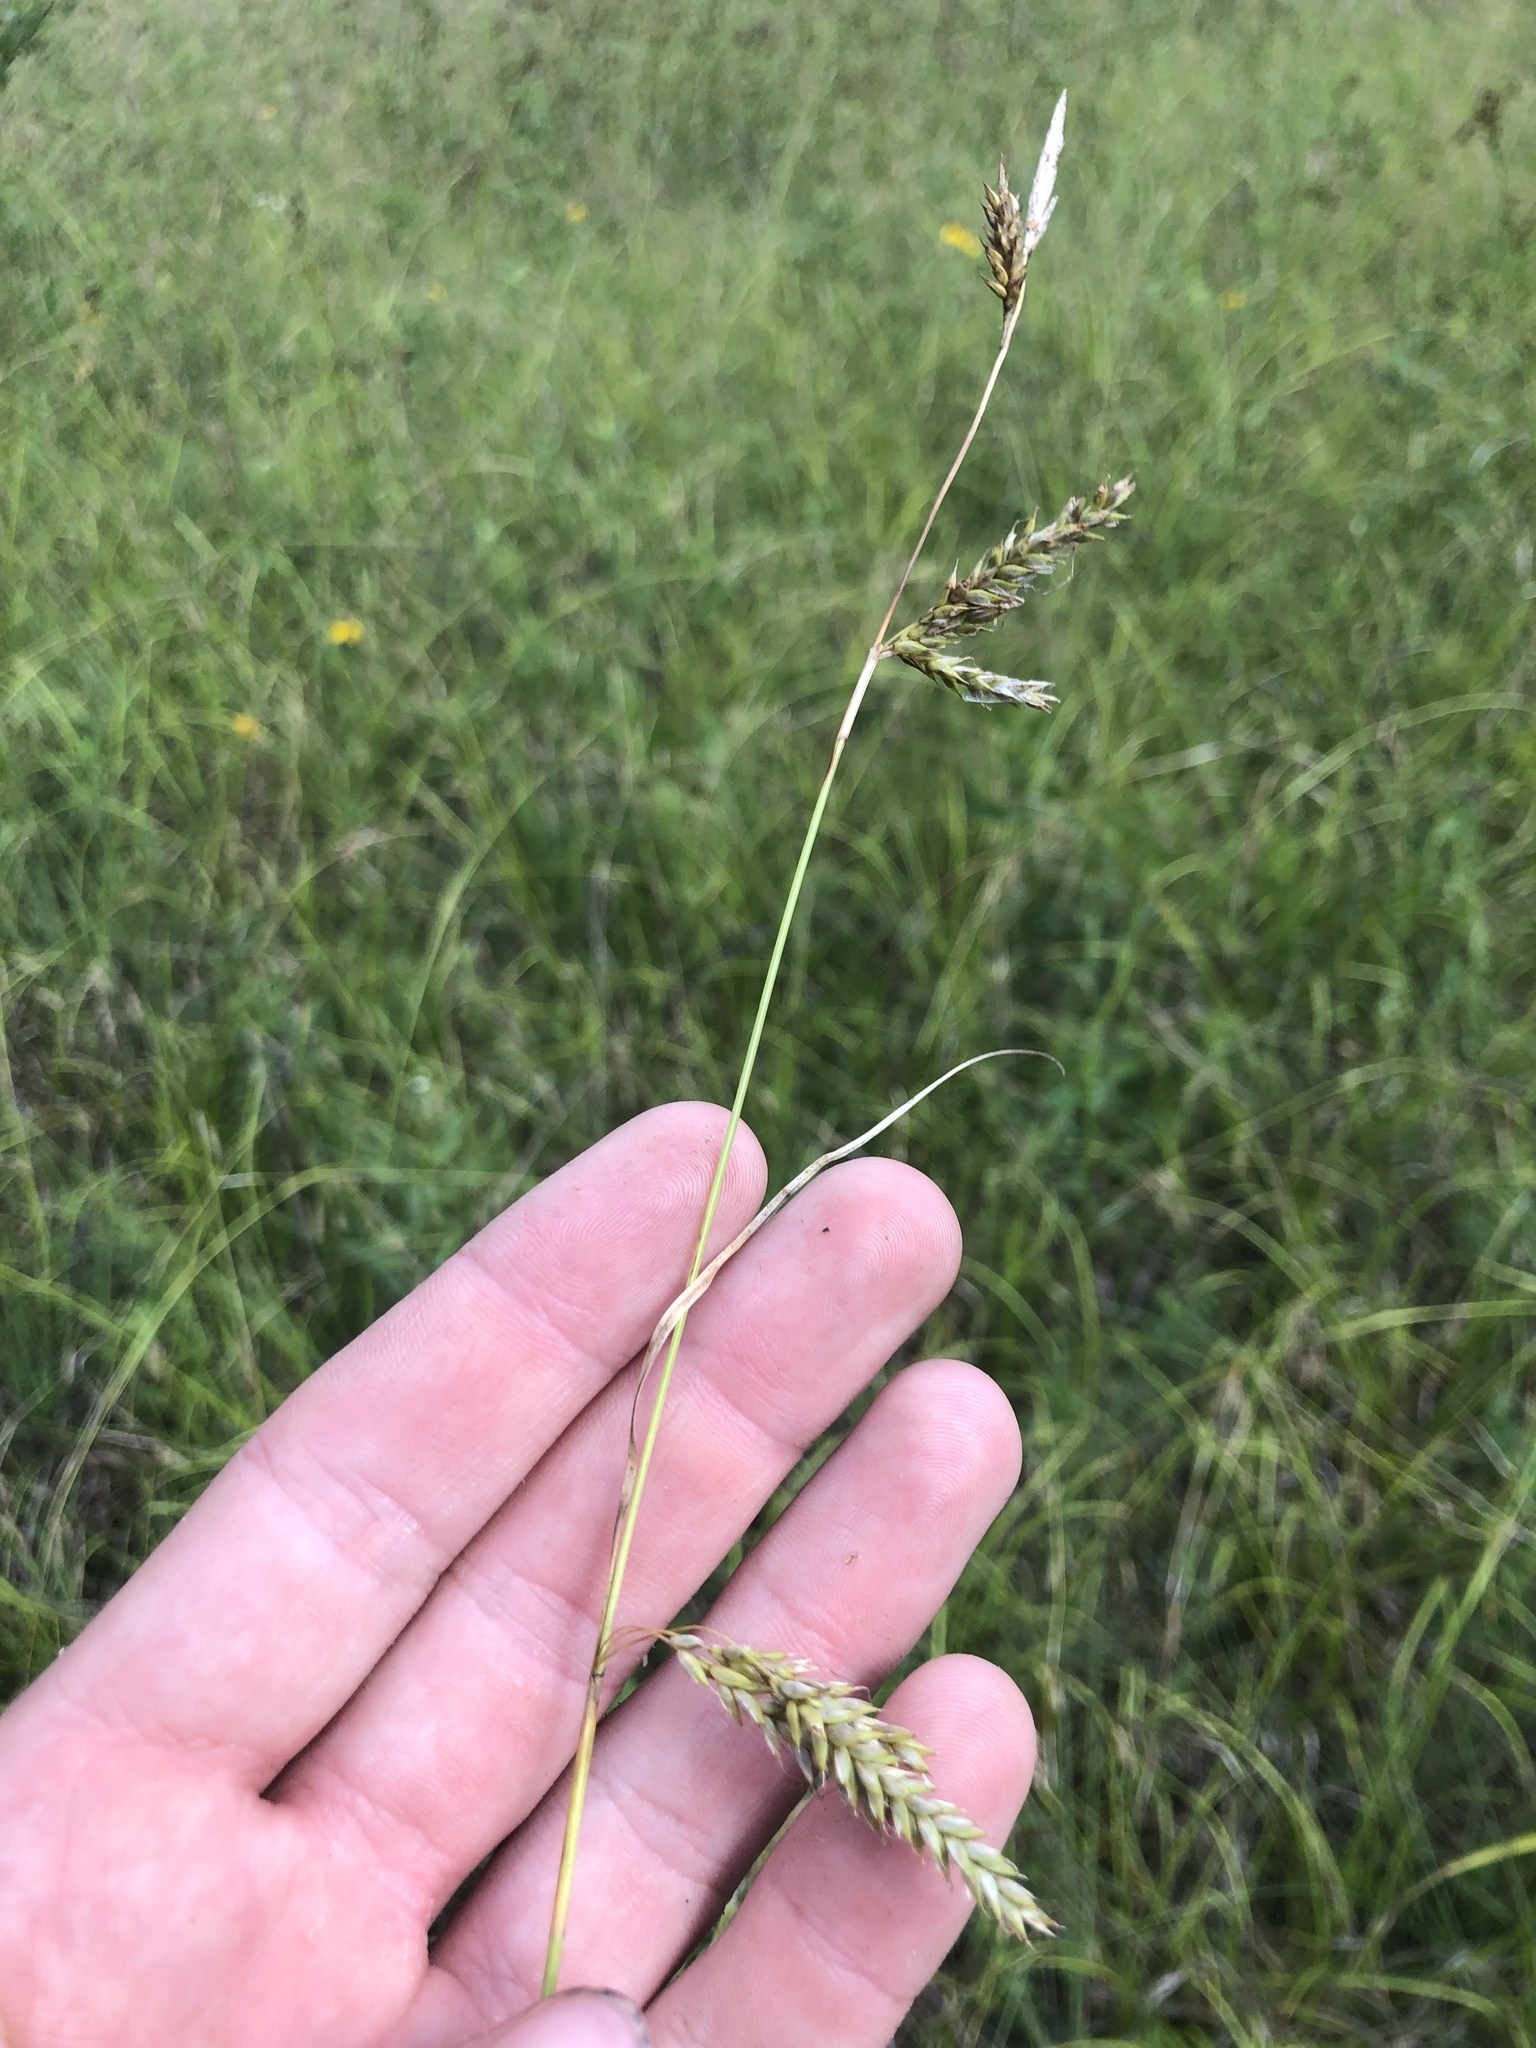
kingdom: Plantae
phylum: Tracheophyta
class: Liliopsida
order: Poales
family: Cyperaceae
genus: Carex
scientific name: Carex cherokeensis
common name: Cherokee sedge
